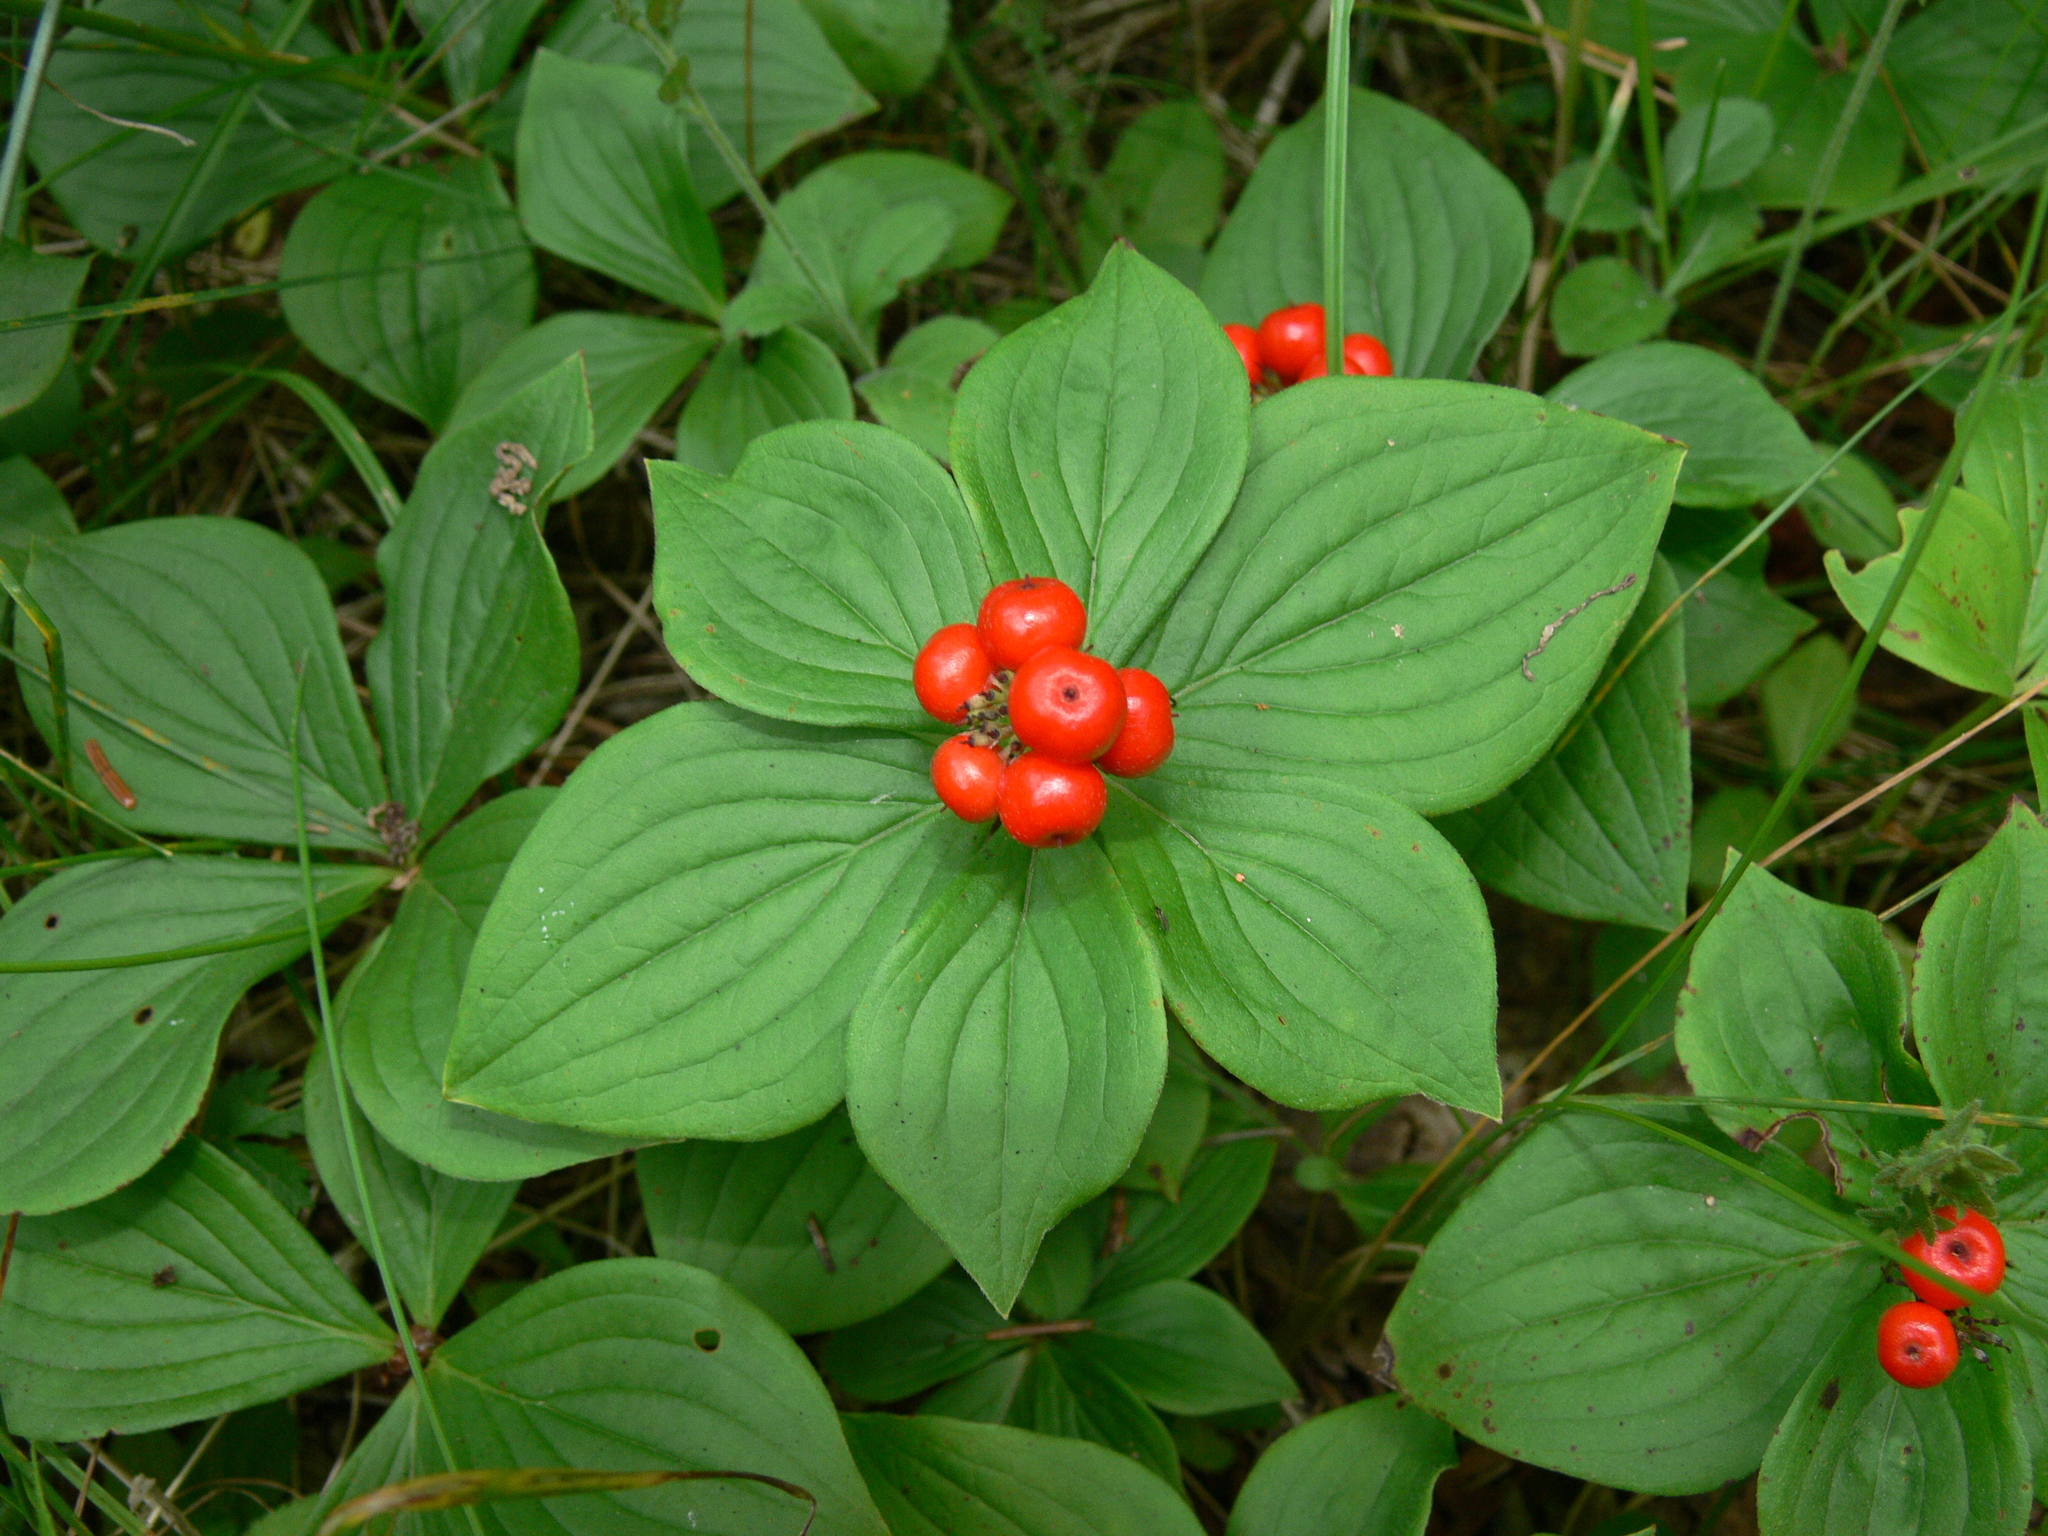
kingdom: Plantae
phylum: Tracheophyta
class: Magnoliopsida
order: Cornales
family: Cornaceae
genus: Cornus
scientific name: Cornus canadensis
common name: Creeping dogwood
